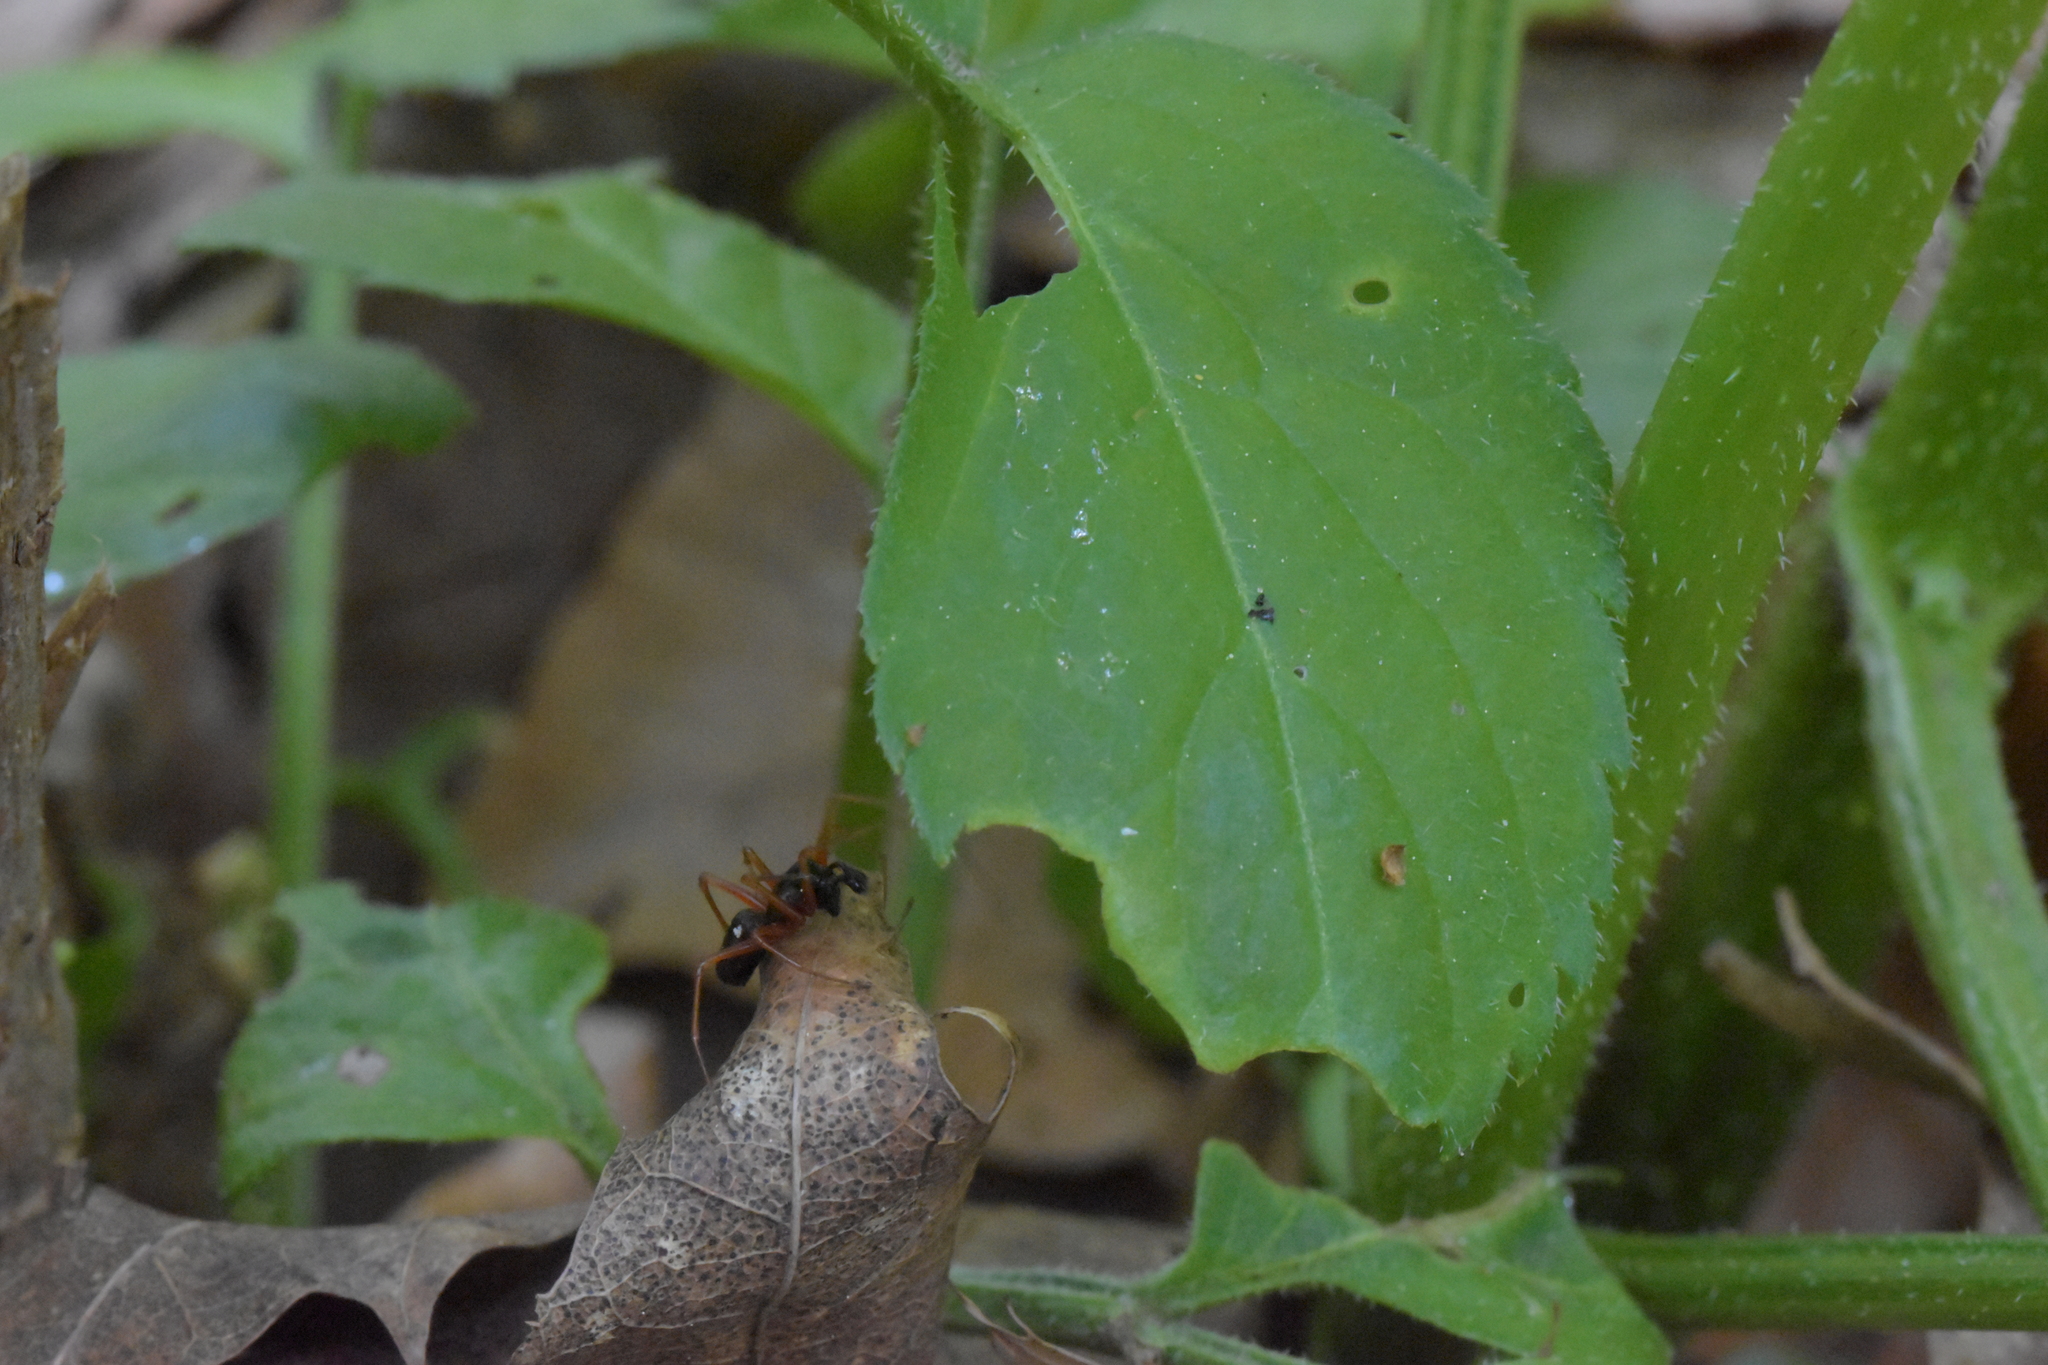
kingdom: Animalia
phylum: Arthropoda
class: Arachnida
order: Araneae
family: Linyphiidae
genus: Linyphia
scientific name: Linyphia hortensis
